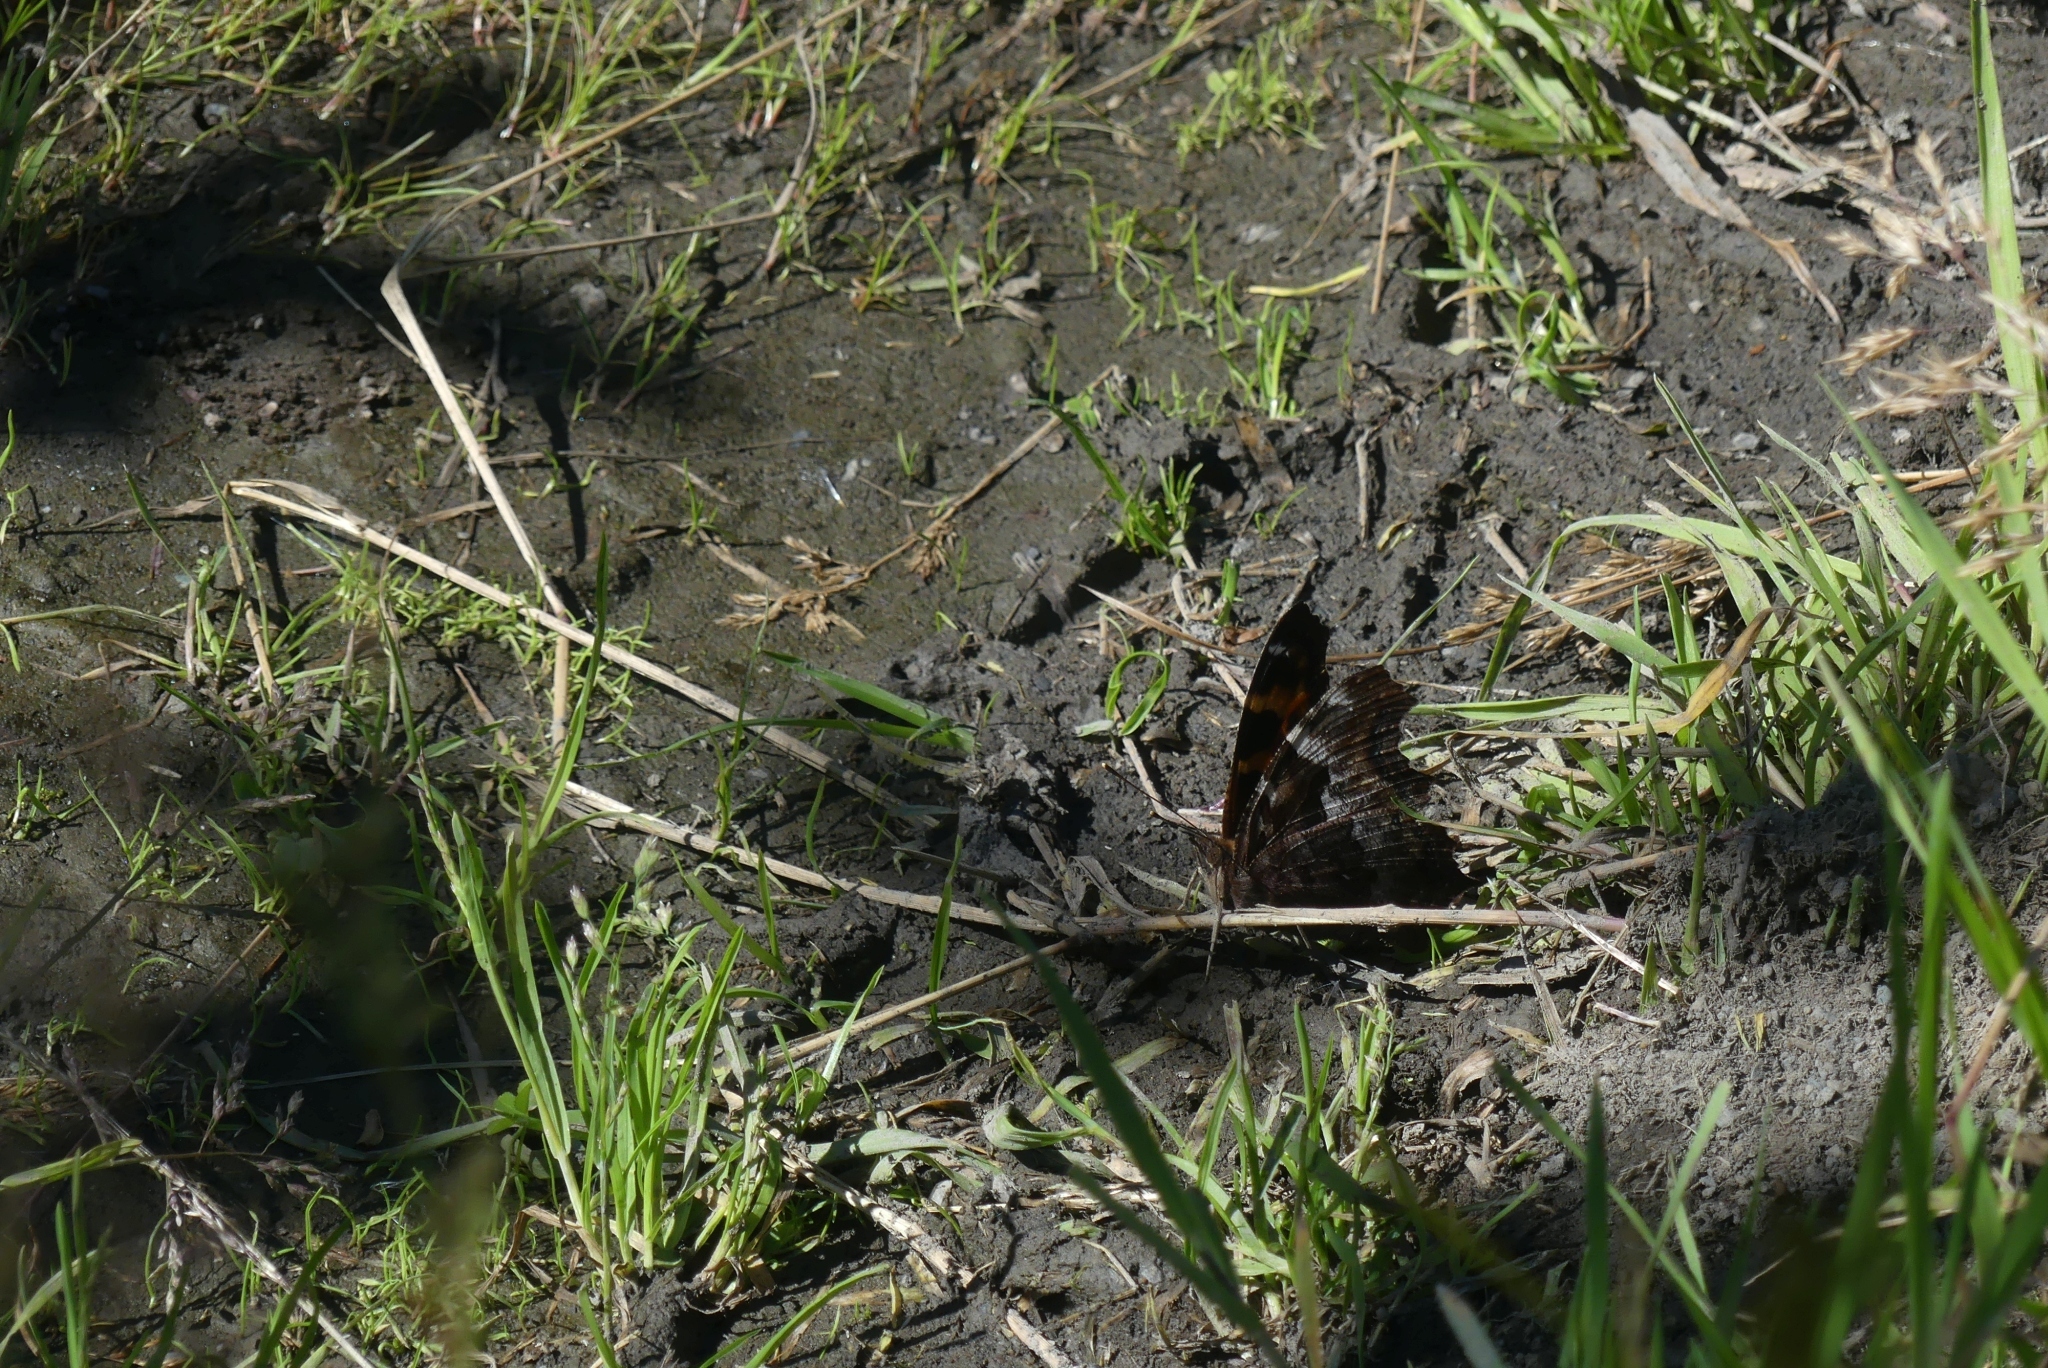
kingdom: Animalia
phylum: Arthropoda
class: Insecta
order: Lepidoptera
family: Nymphalidae
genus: Polygonia
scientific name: Polygonia vaualbum
